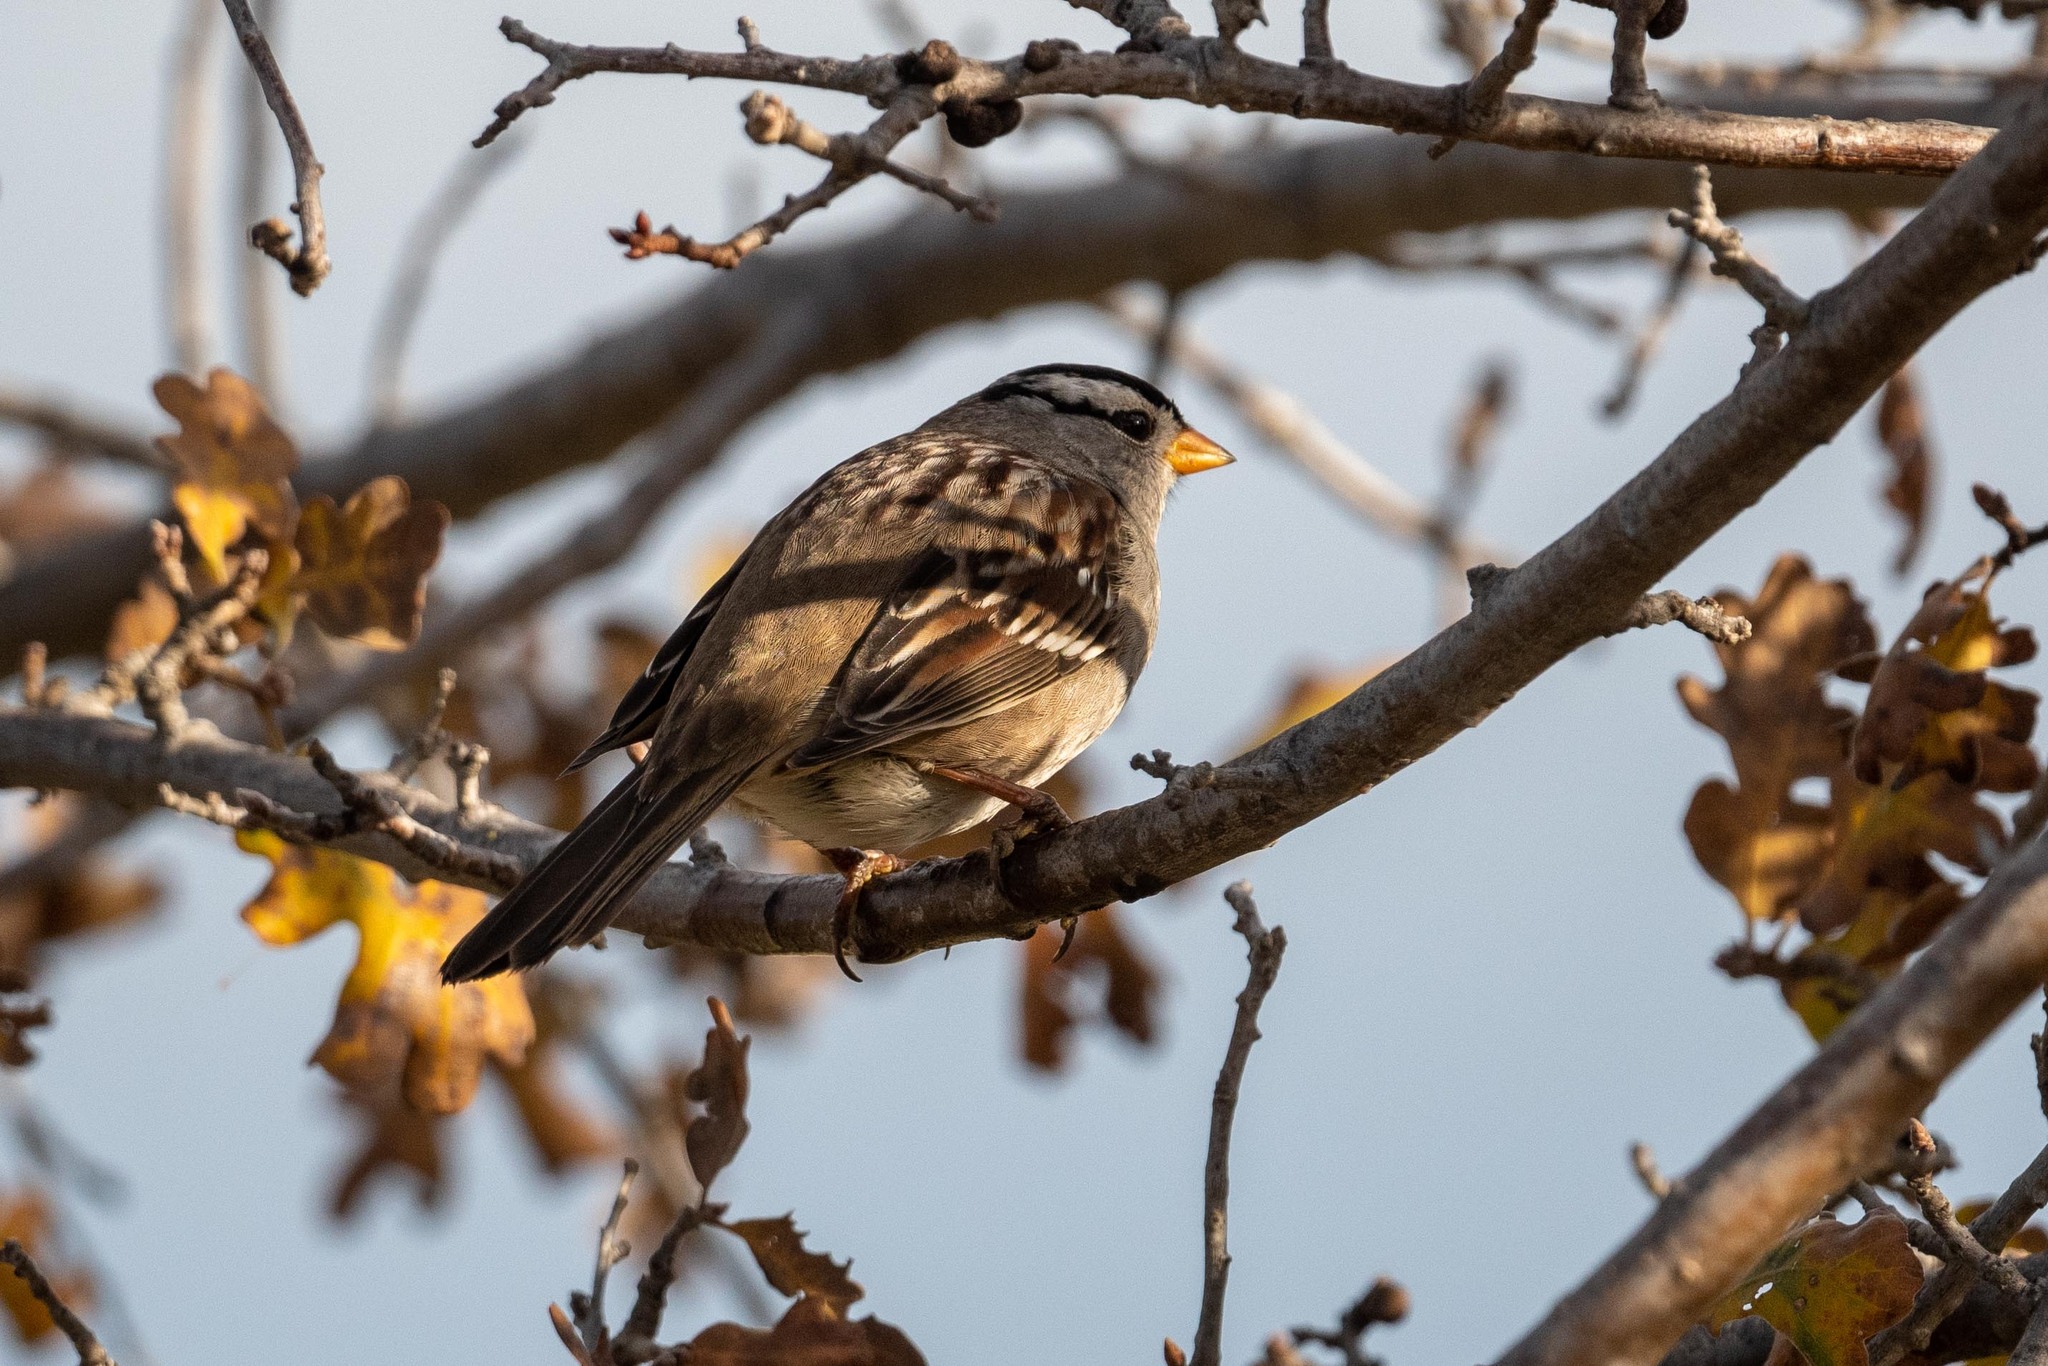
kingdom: Animalia
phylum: Chordata
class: Aves
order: Passeriformes
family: Passerellidae
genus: Zonotrichia
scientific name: Zonotrichia leucophrys
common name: White-crowned sparrow
